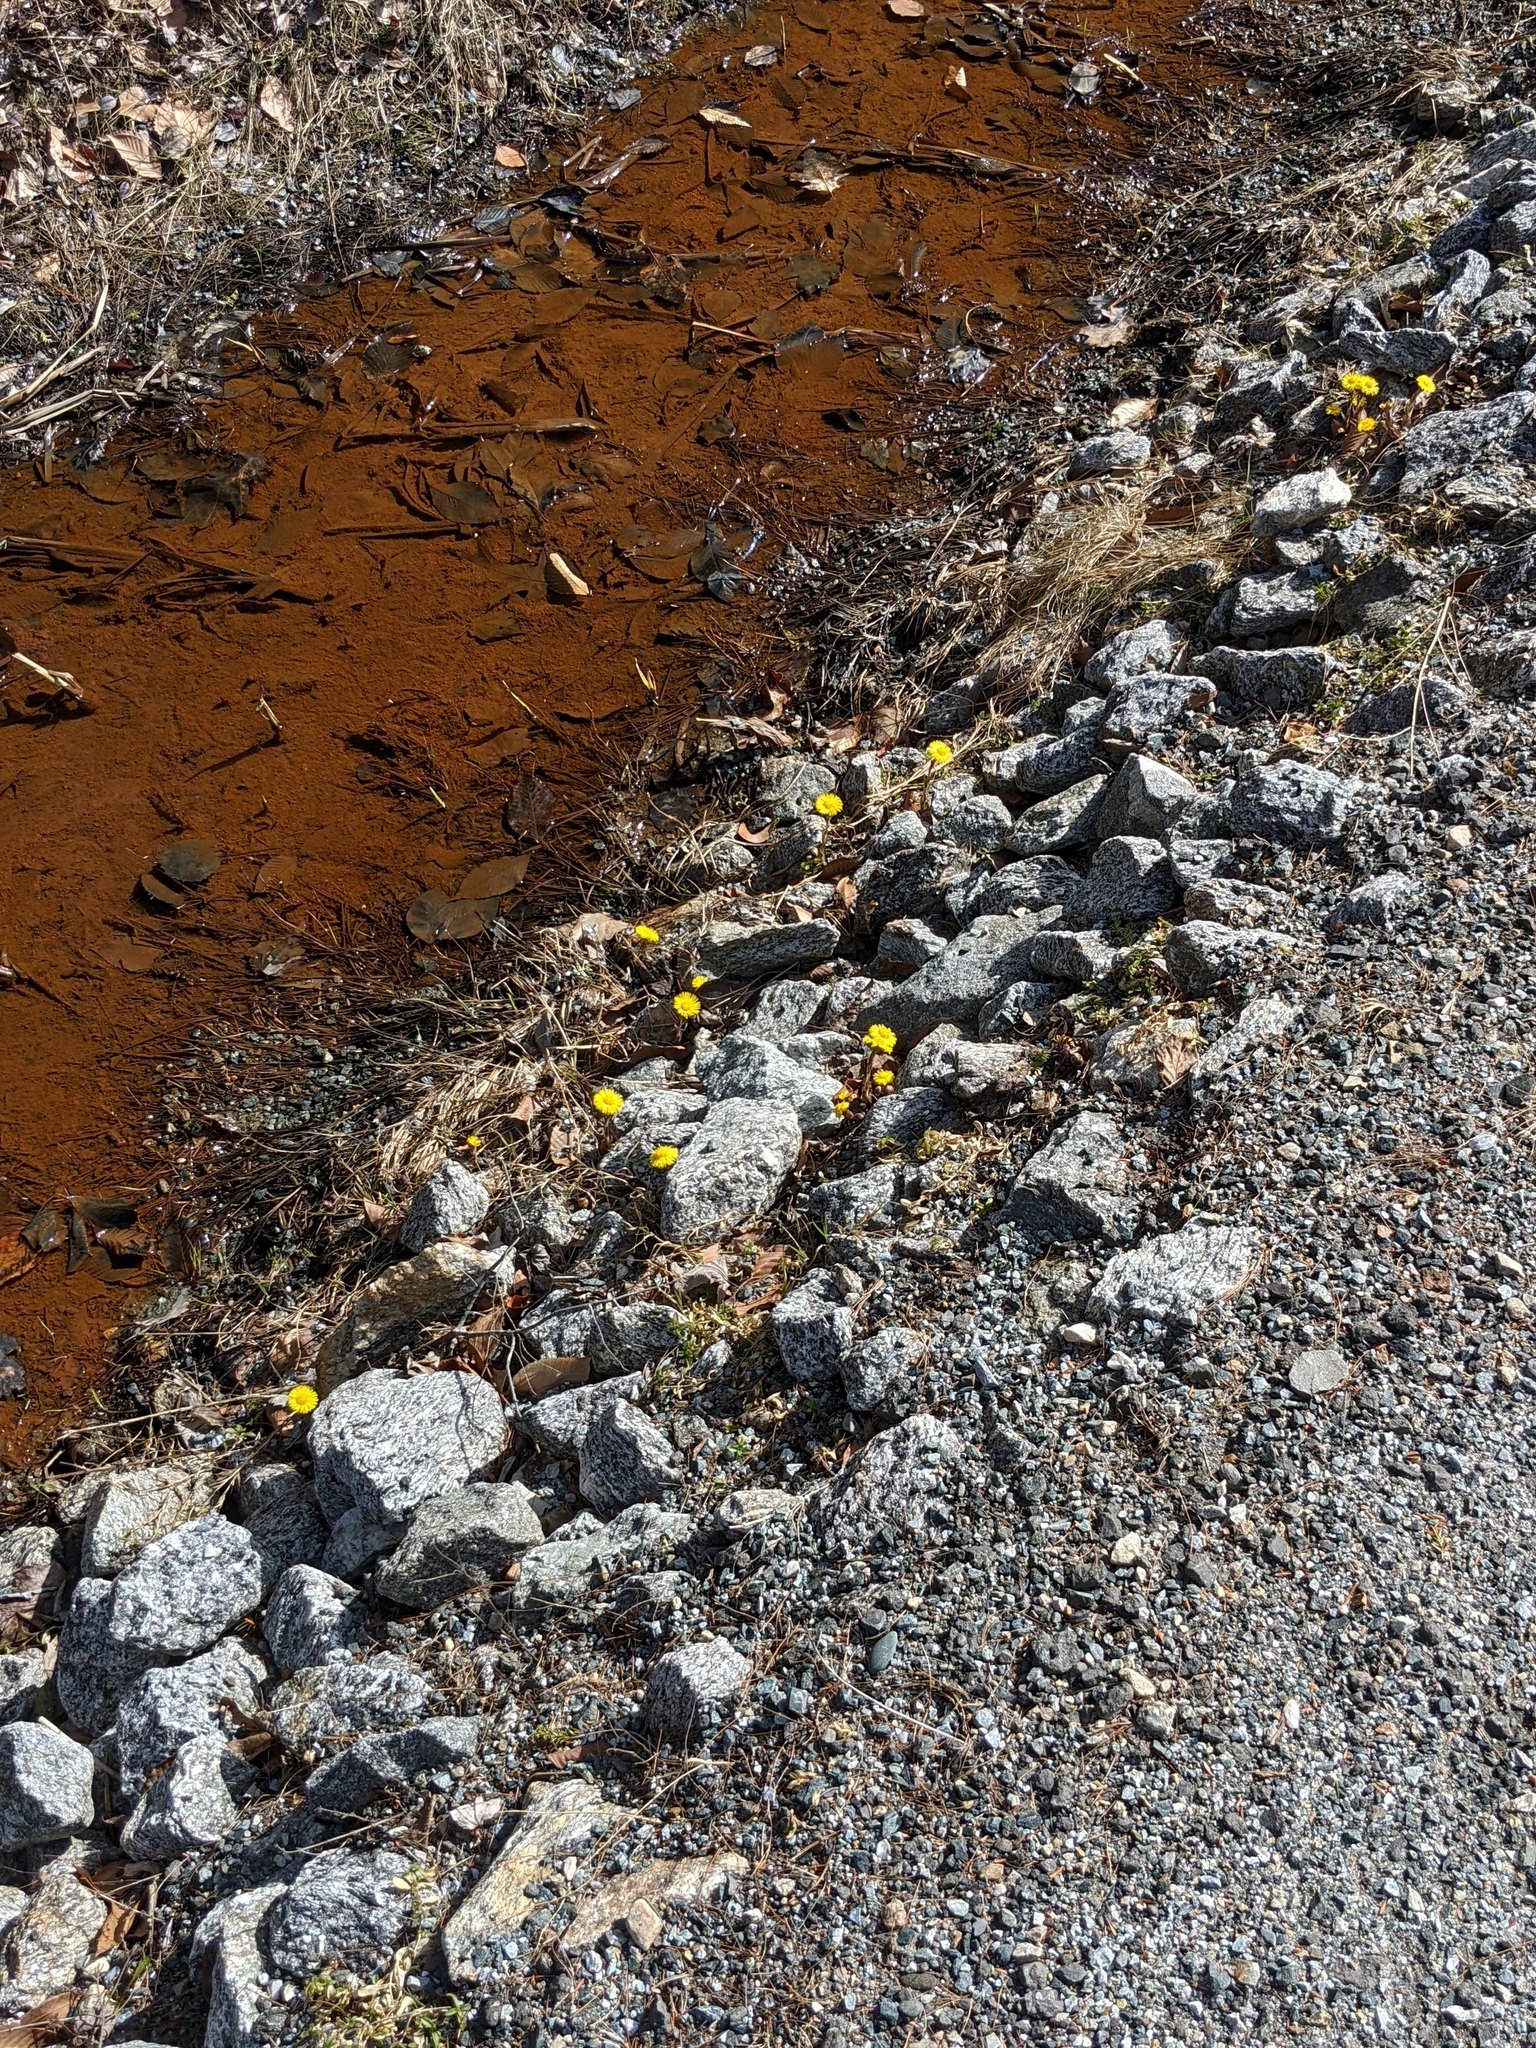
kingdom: Plantae
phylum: Tracheophyta
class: Magnoliopsida
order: Asterales
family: Asteraceae
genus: Tussilago
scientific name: Tussilago farfara
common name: Coltsfoot
